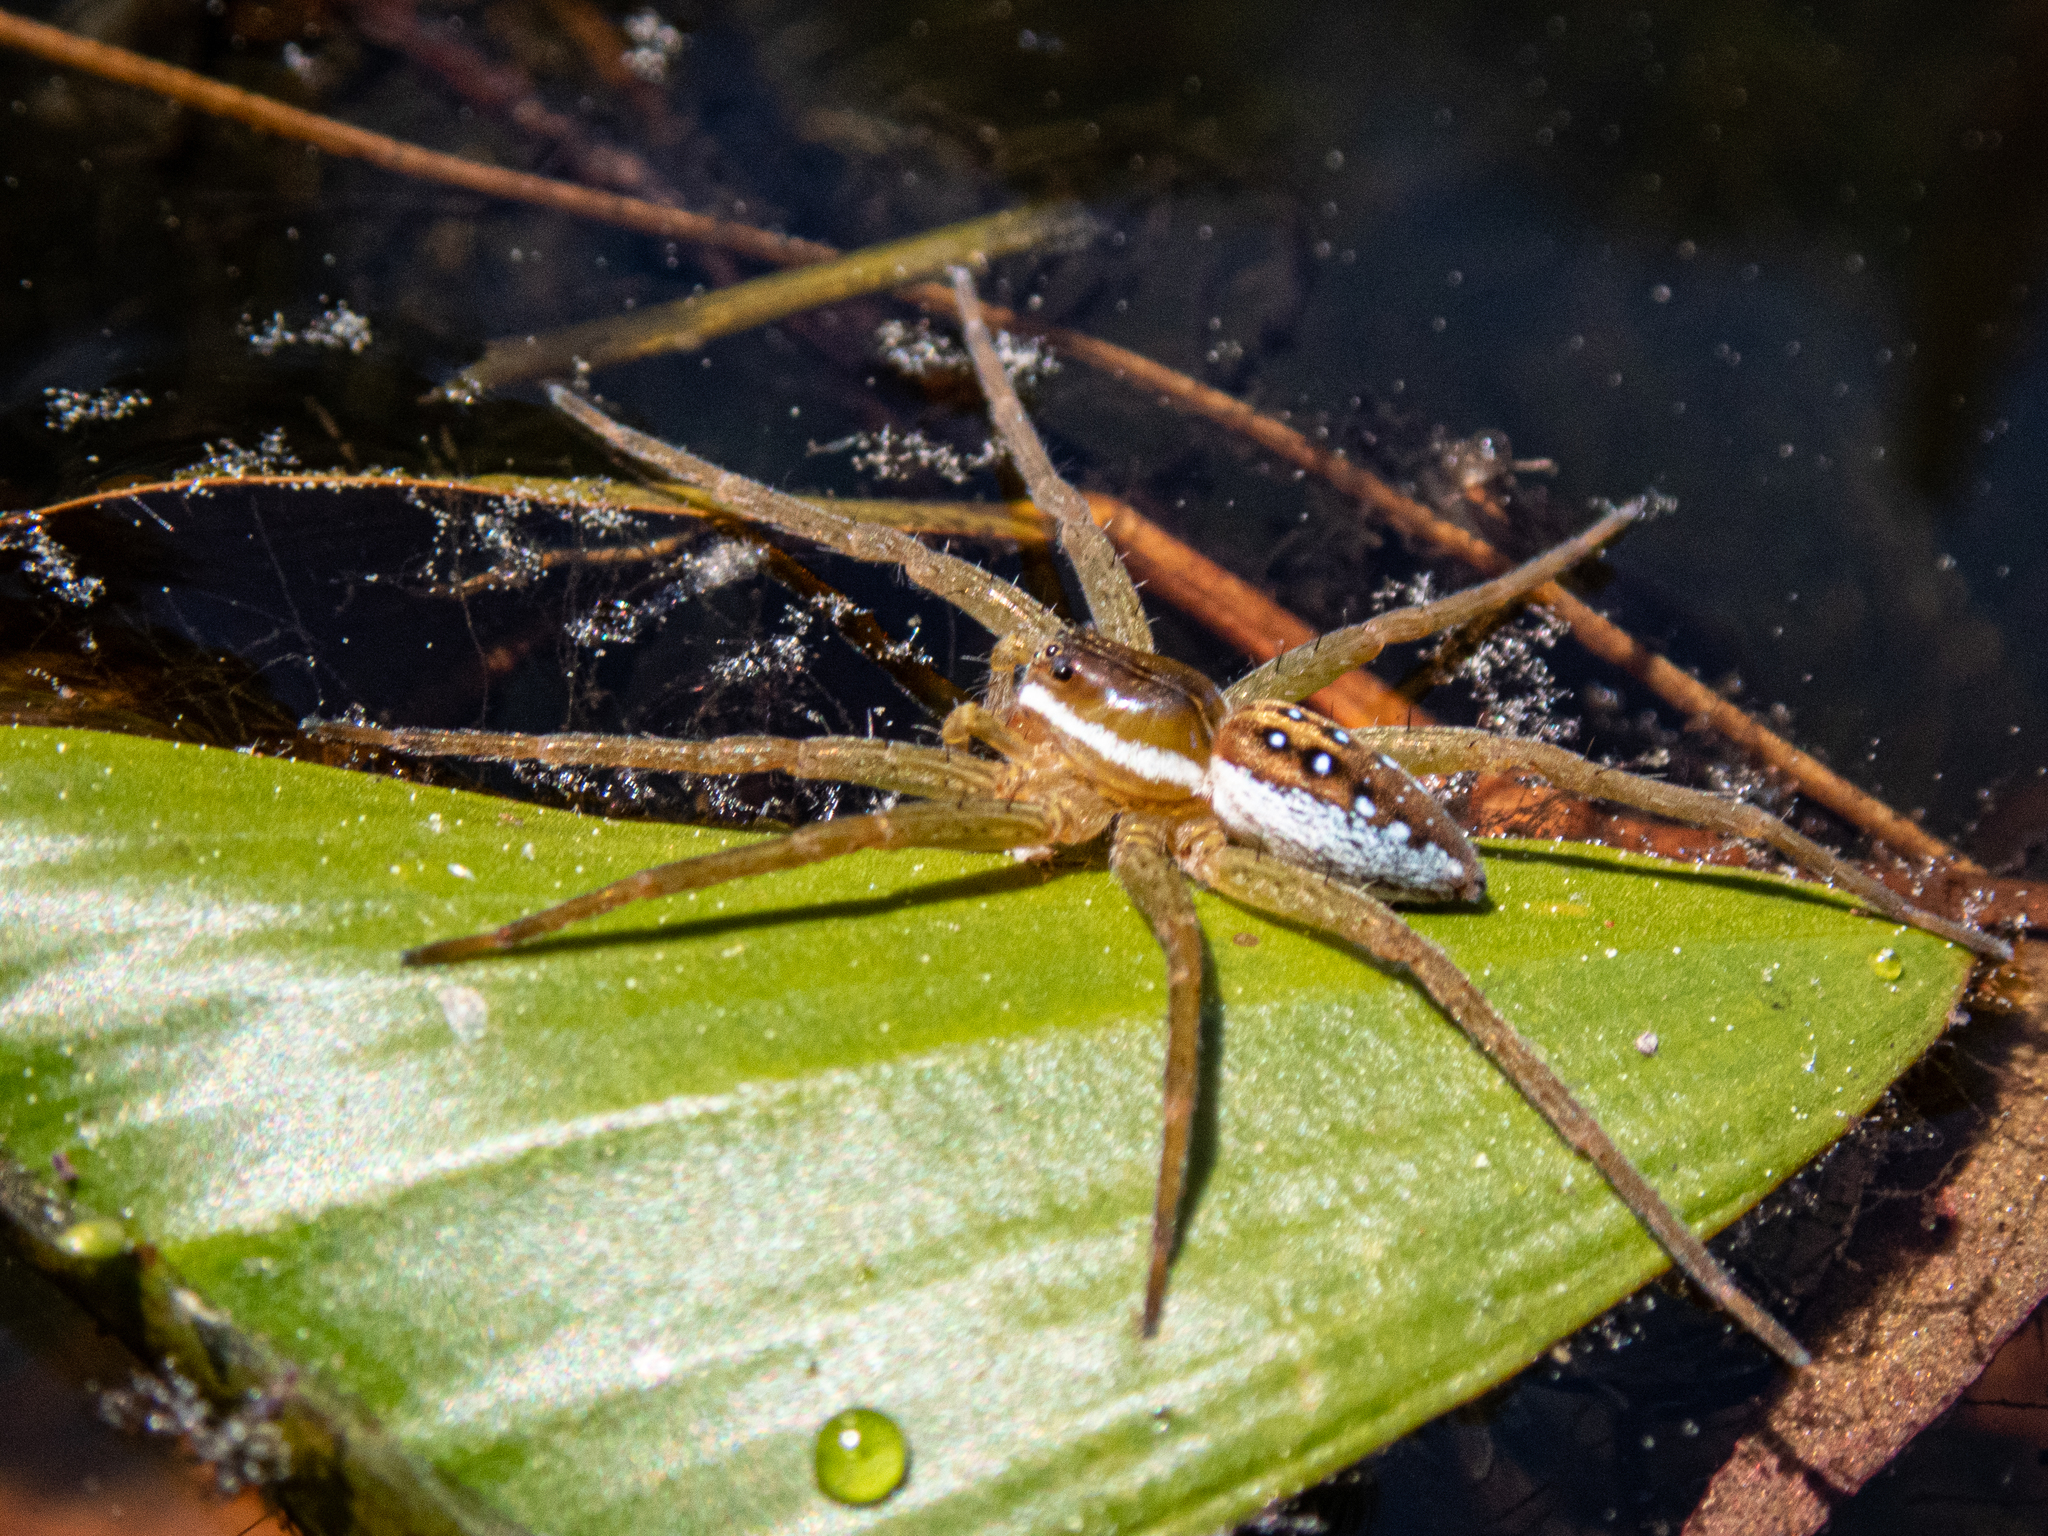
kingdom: Animalia
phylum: Arthropoda
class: Arachnida
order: Araneae
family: Pisauridae
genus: Dolomedes
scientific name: Dolomedes triton
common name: Six-spotted fishing spider
